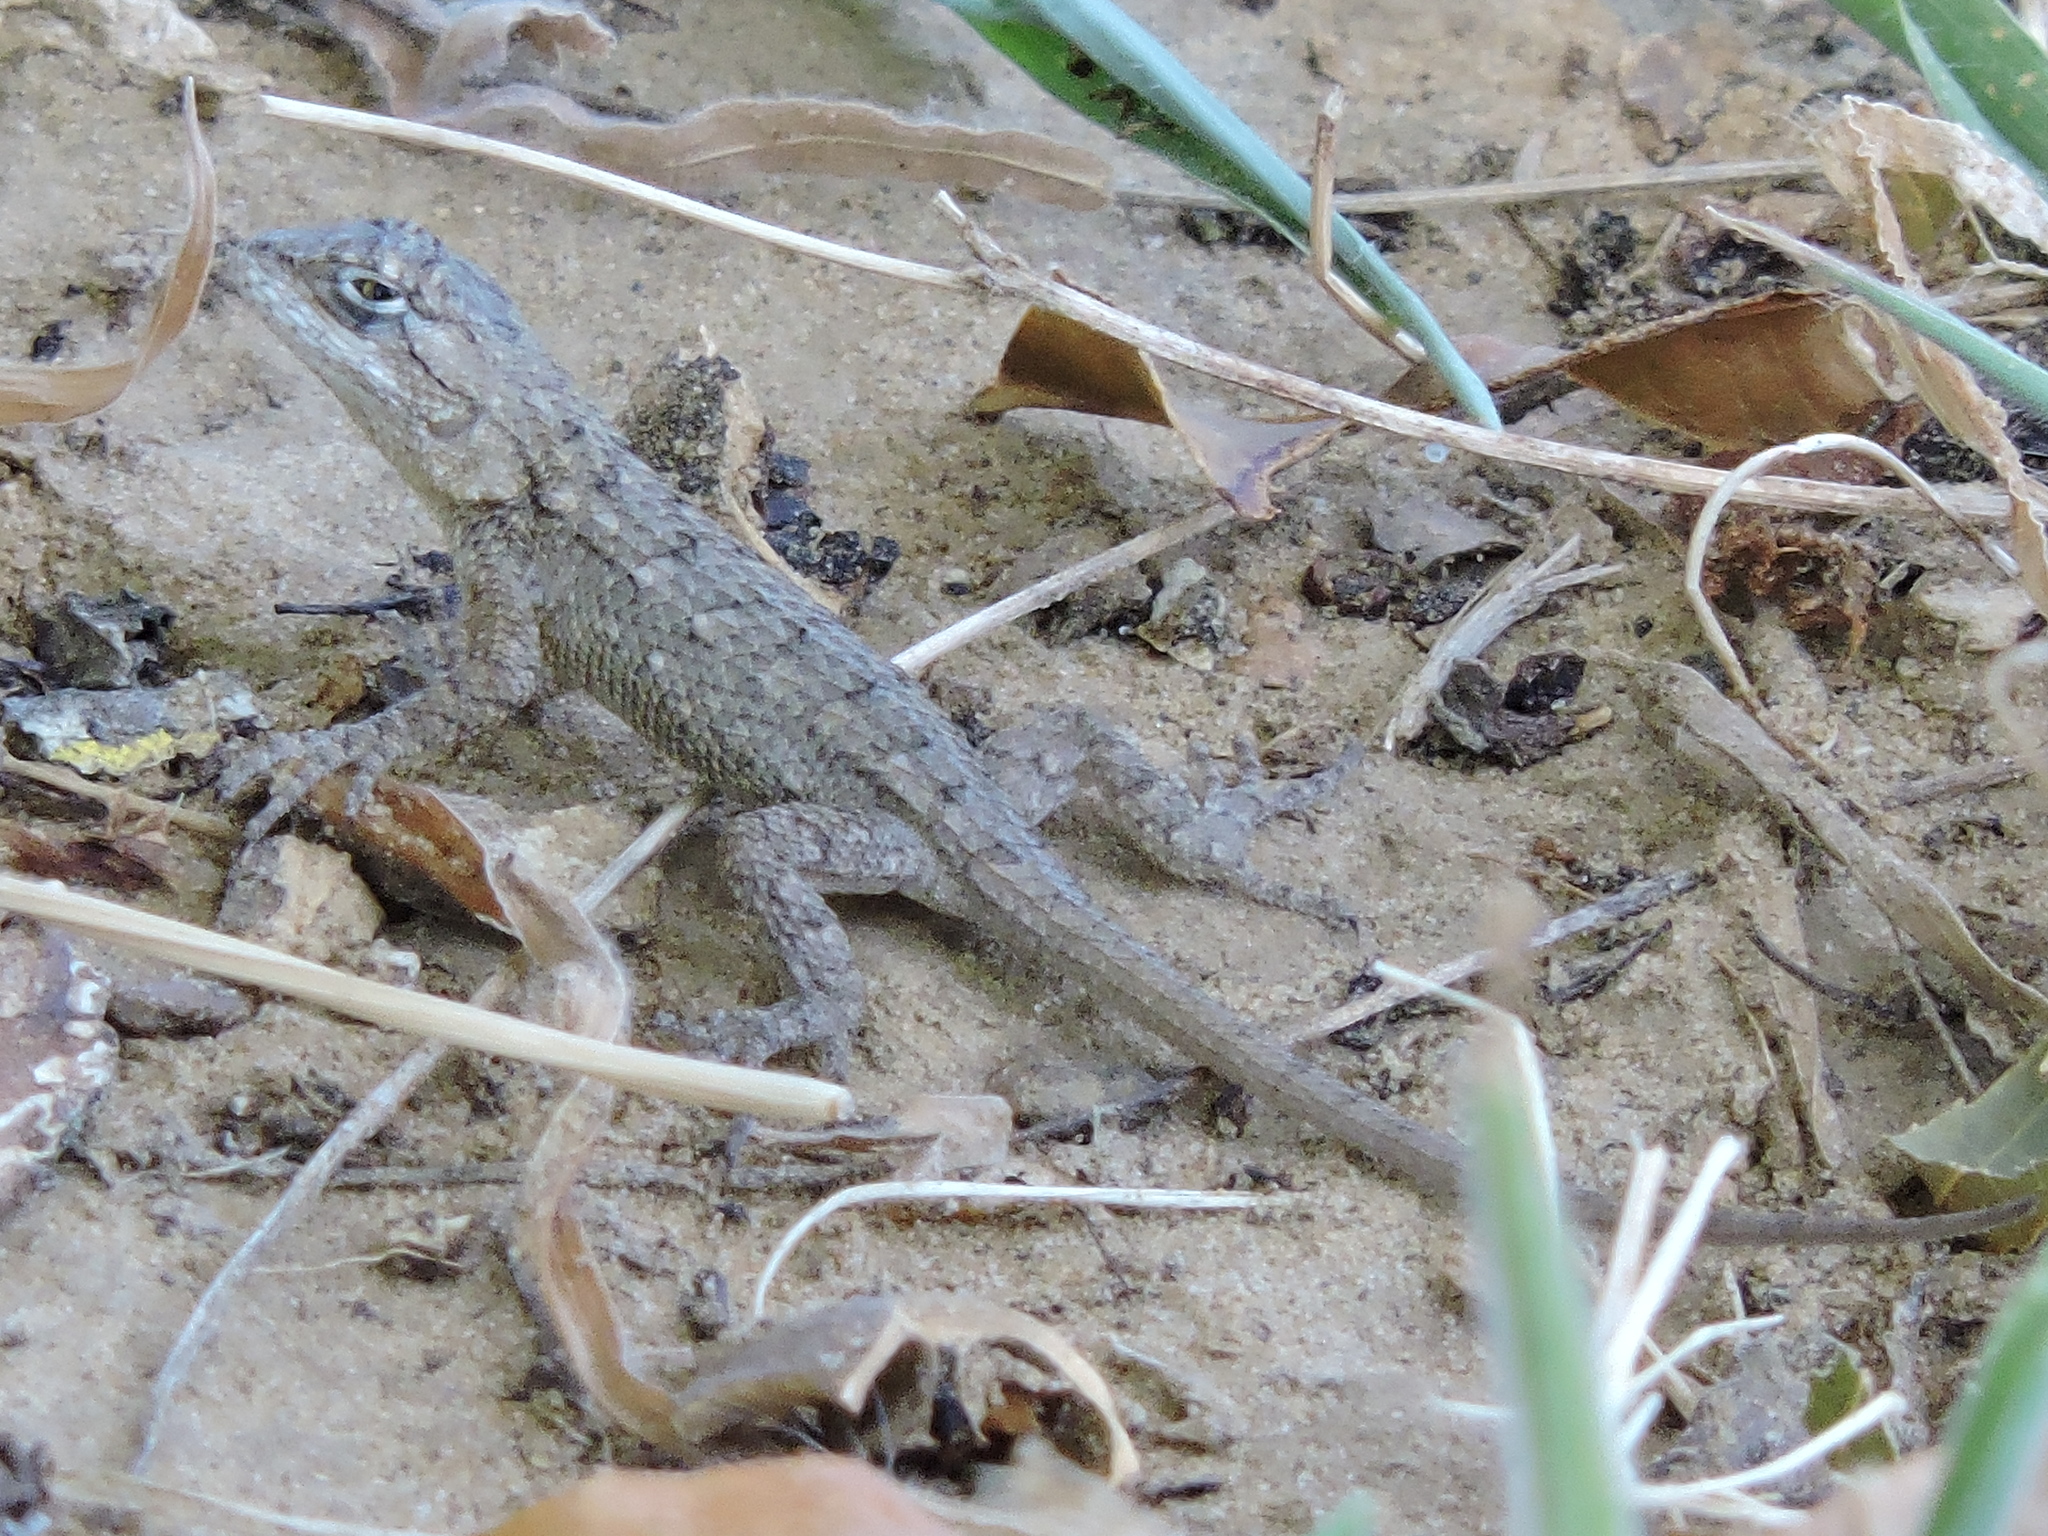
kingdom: Animalia
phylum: Chordata
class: Squamata
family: Phrynosomatidae
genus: Sceloporus
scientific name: Sceloporus olivaceus
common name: Texas spiny lizard
